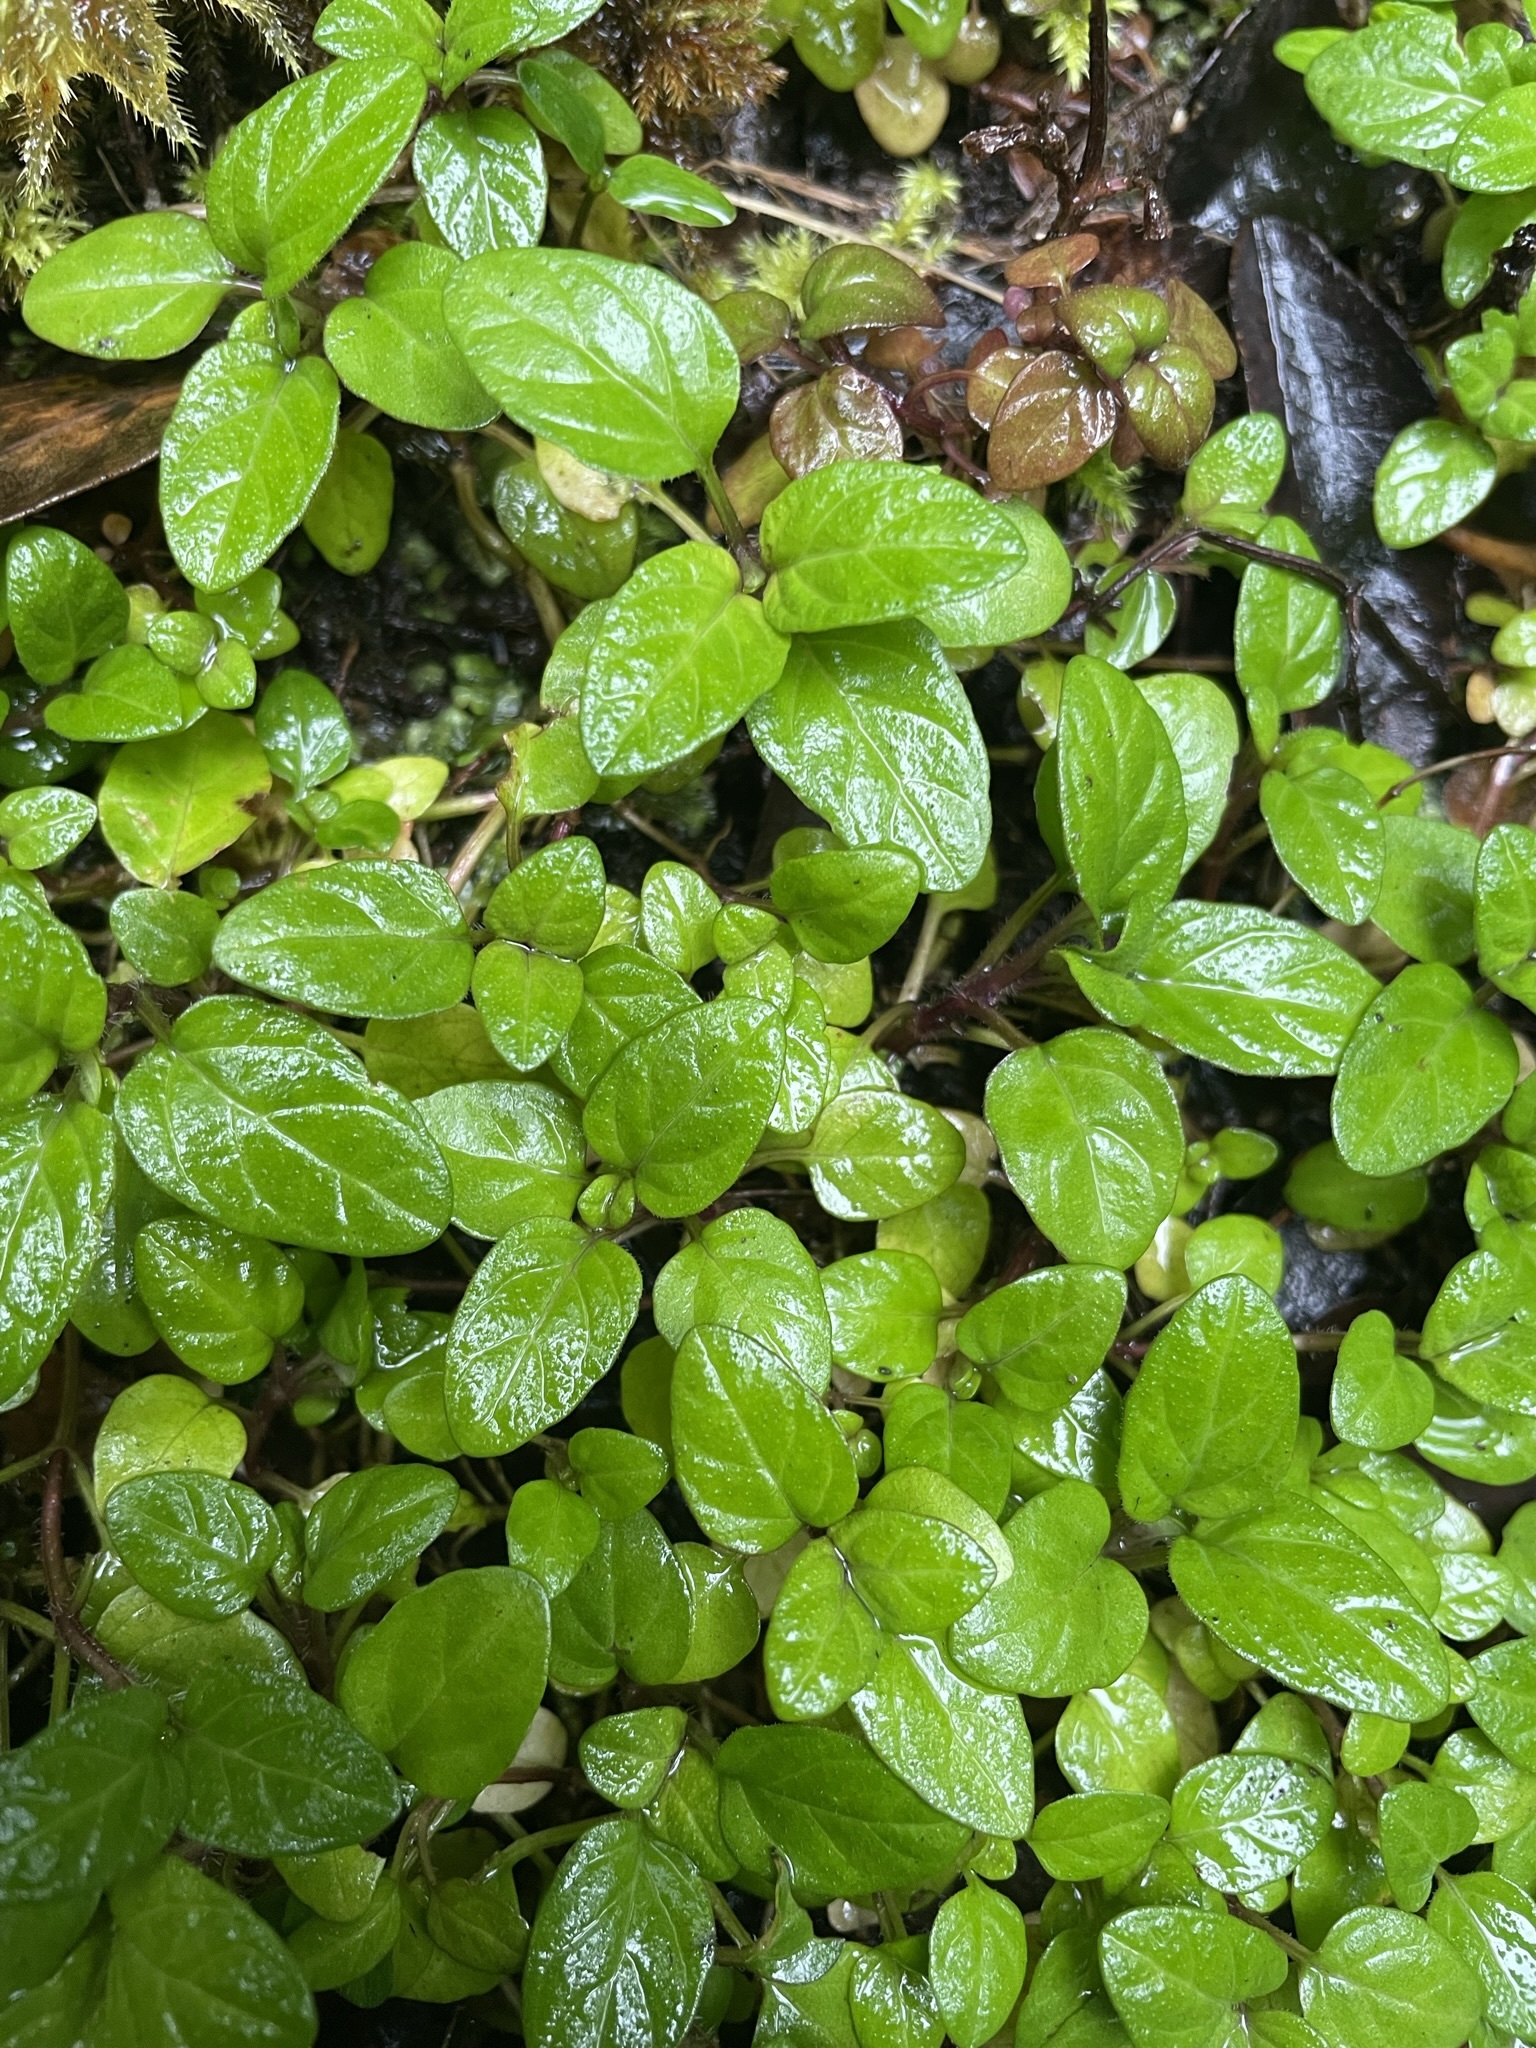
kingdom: Plantae
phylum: Tracheophyta
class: Magnoliopsida
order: Lamiales
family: Lamiaceae
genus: Prunella
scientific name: Prunella vulgaris
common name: Heal-all
